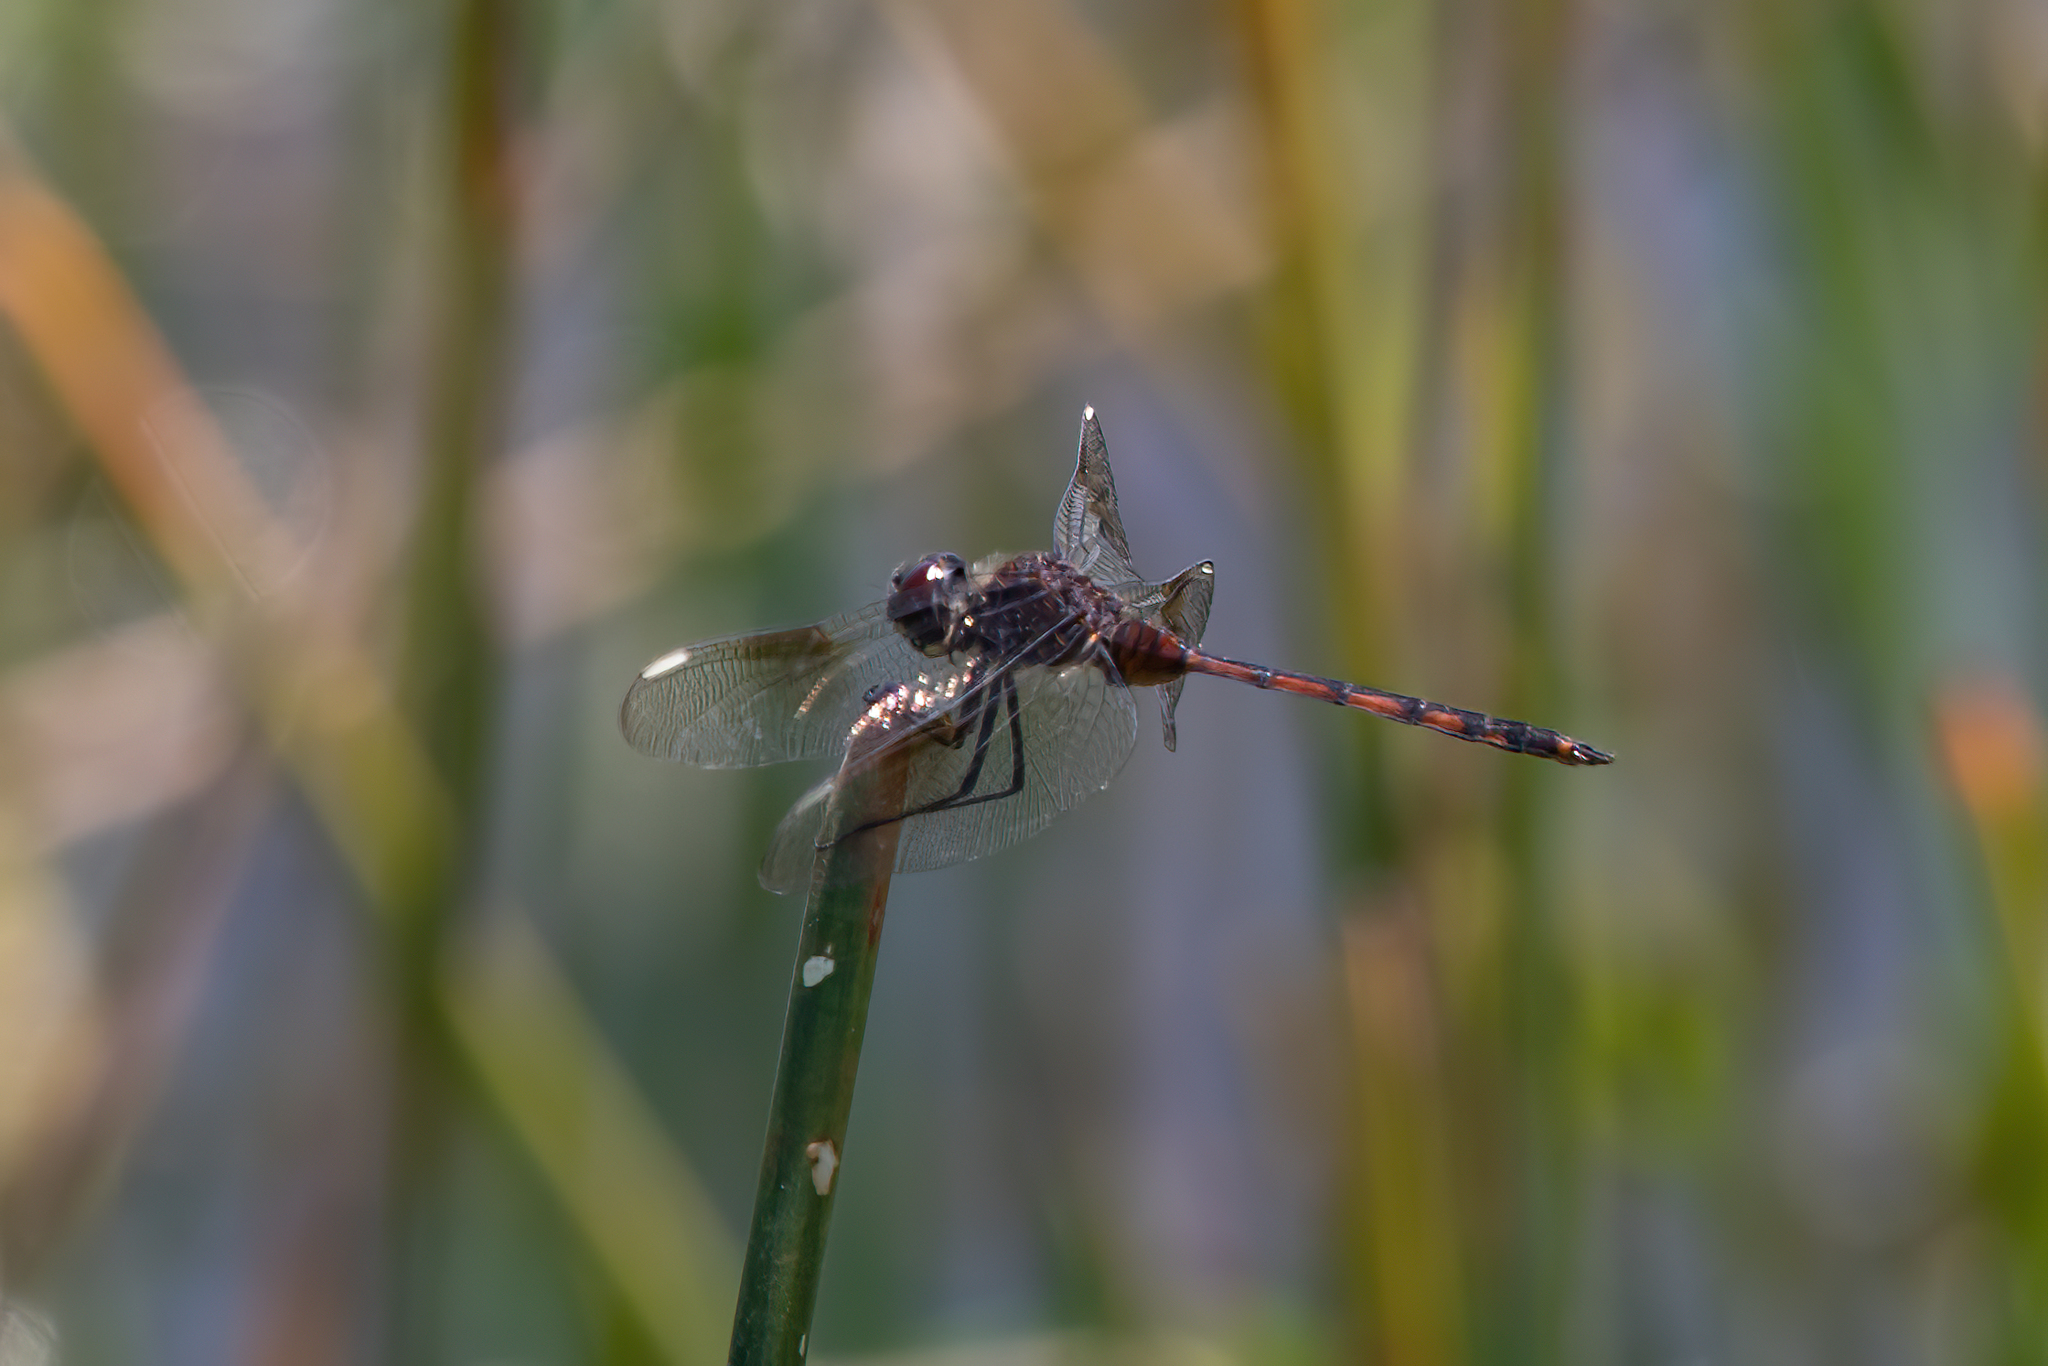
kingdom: Animalia
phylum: Arthropoda
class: Insecta
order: Odonata
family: Libellulidae
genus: Brachymesia
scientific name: Brachymesia gravida
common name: Four-spotted pennant
